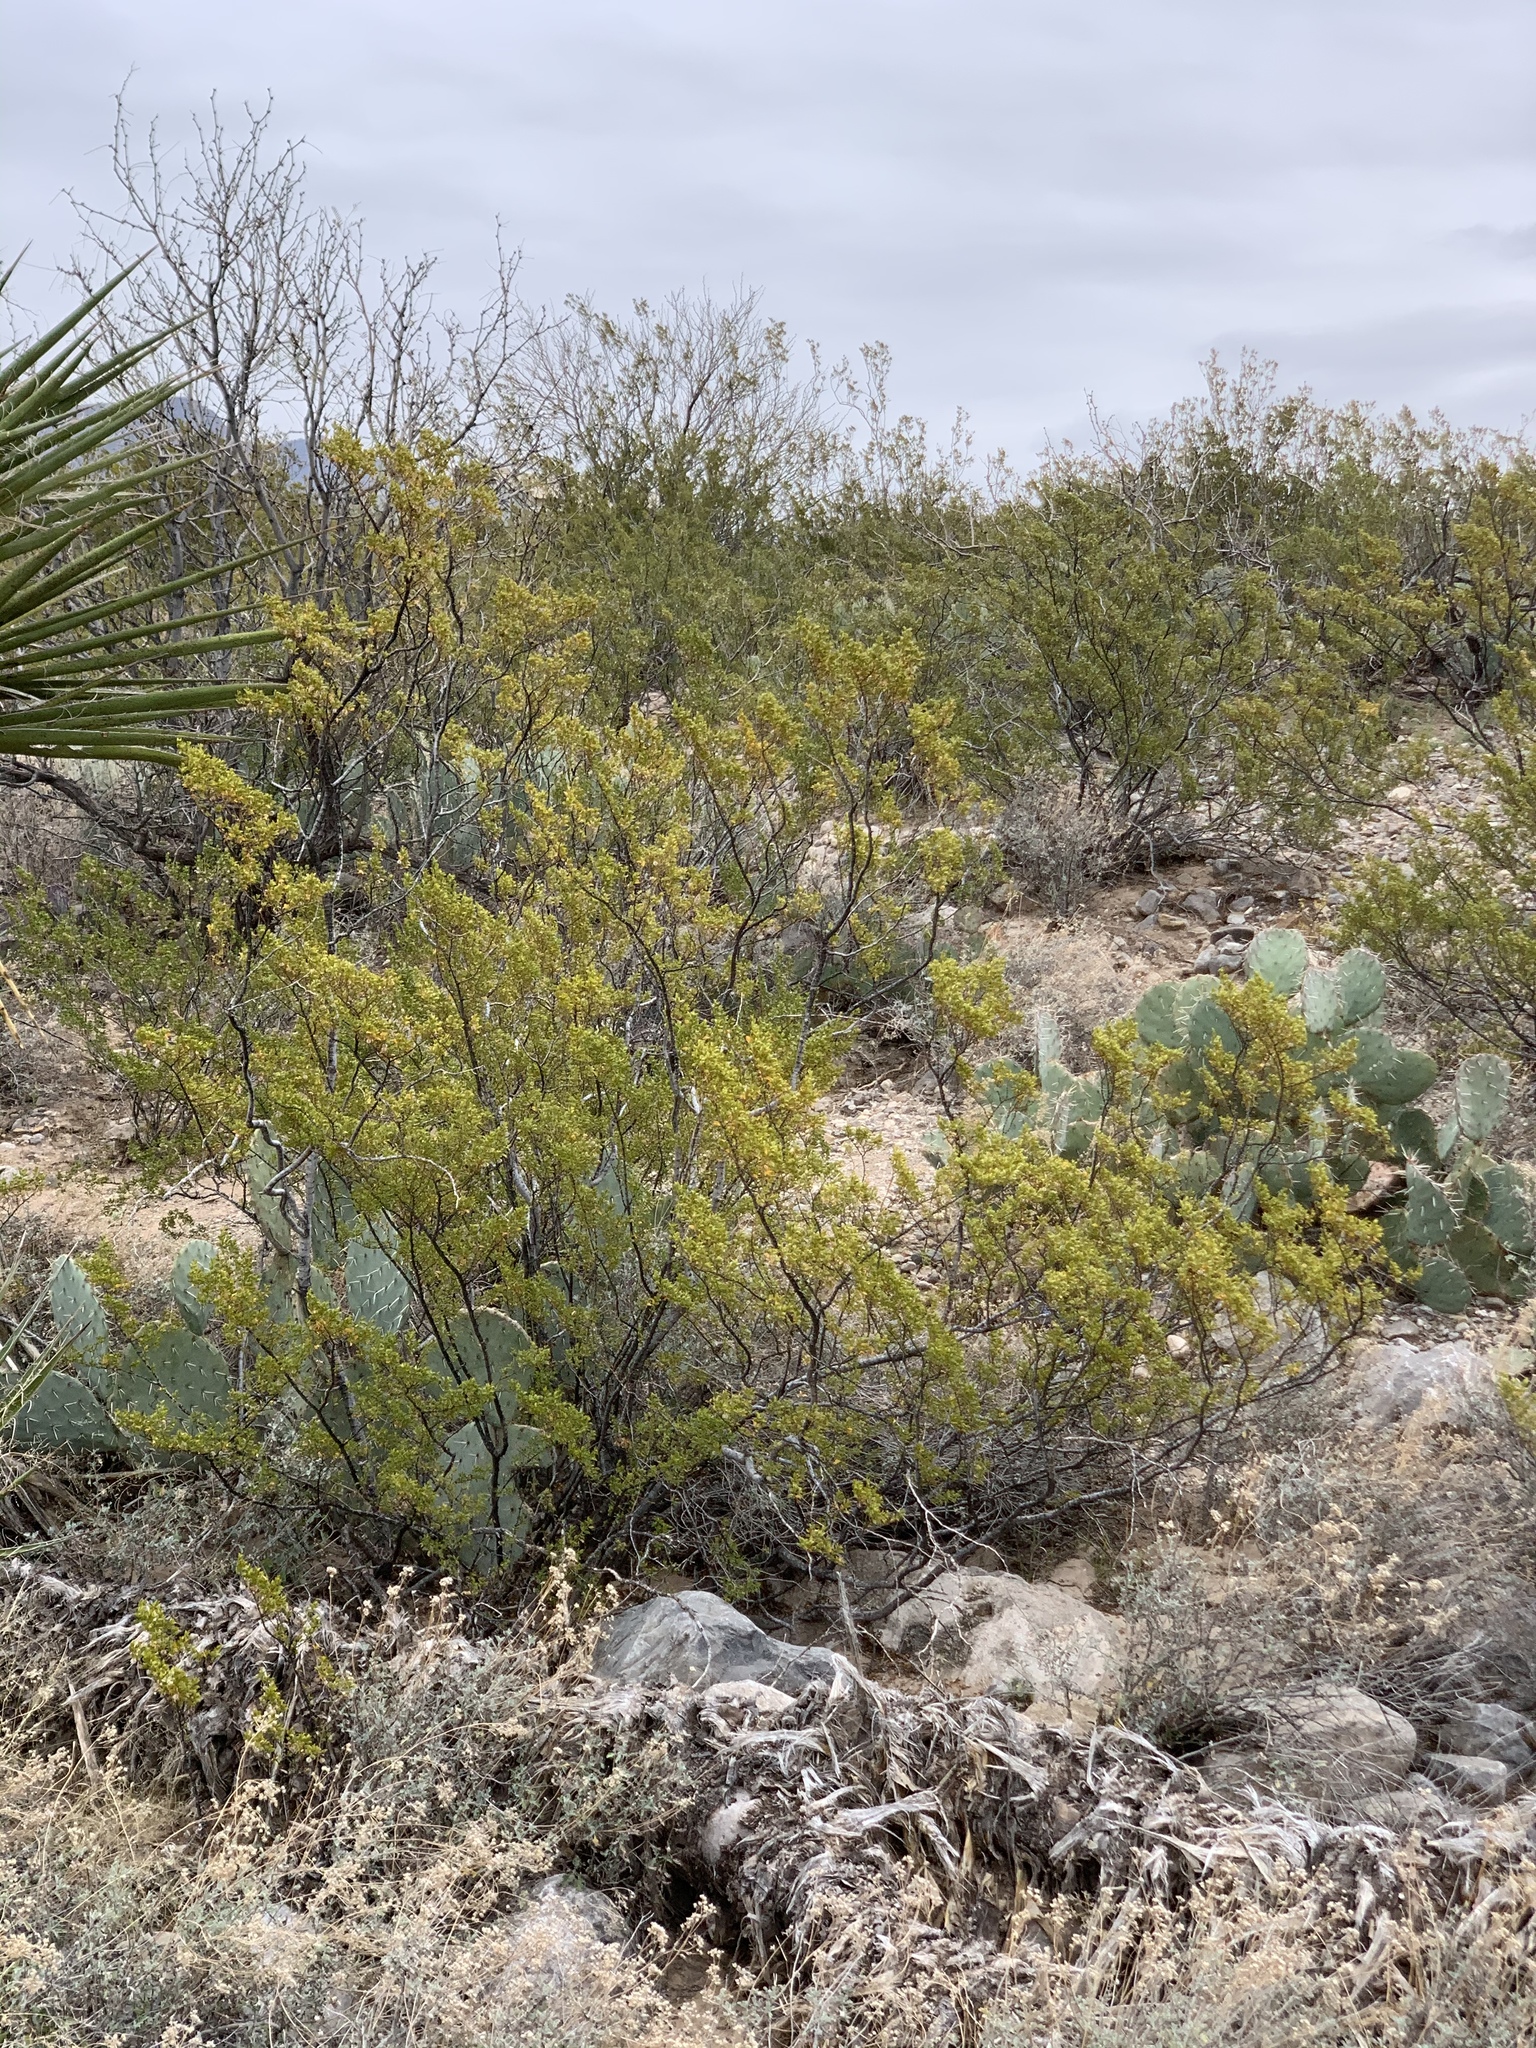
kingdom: Plantae
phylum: Tracheophyta
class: Magnoliopsida
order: Zygophyllales
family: Zygophyllaceae
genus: Larrea
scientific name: Larrea tridentata
